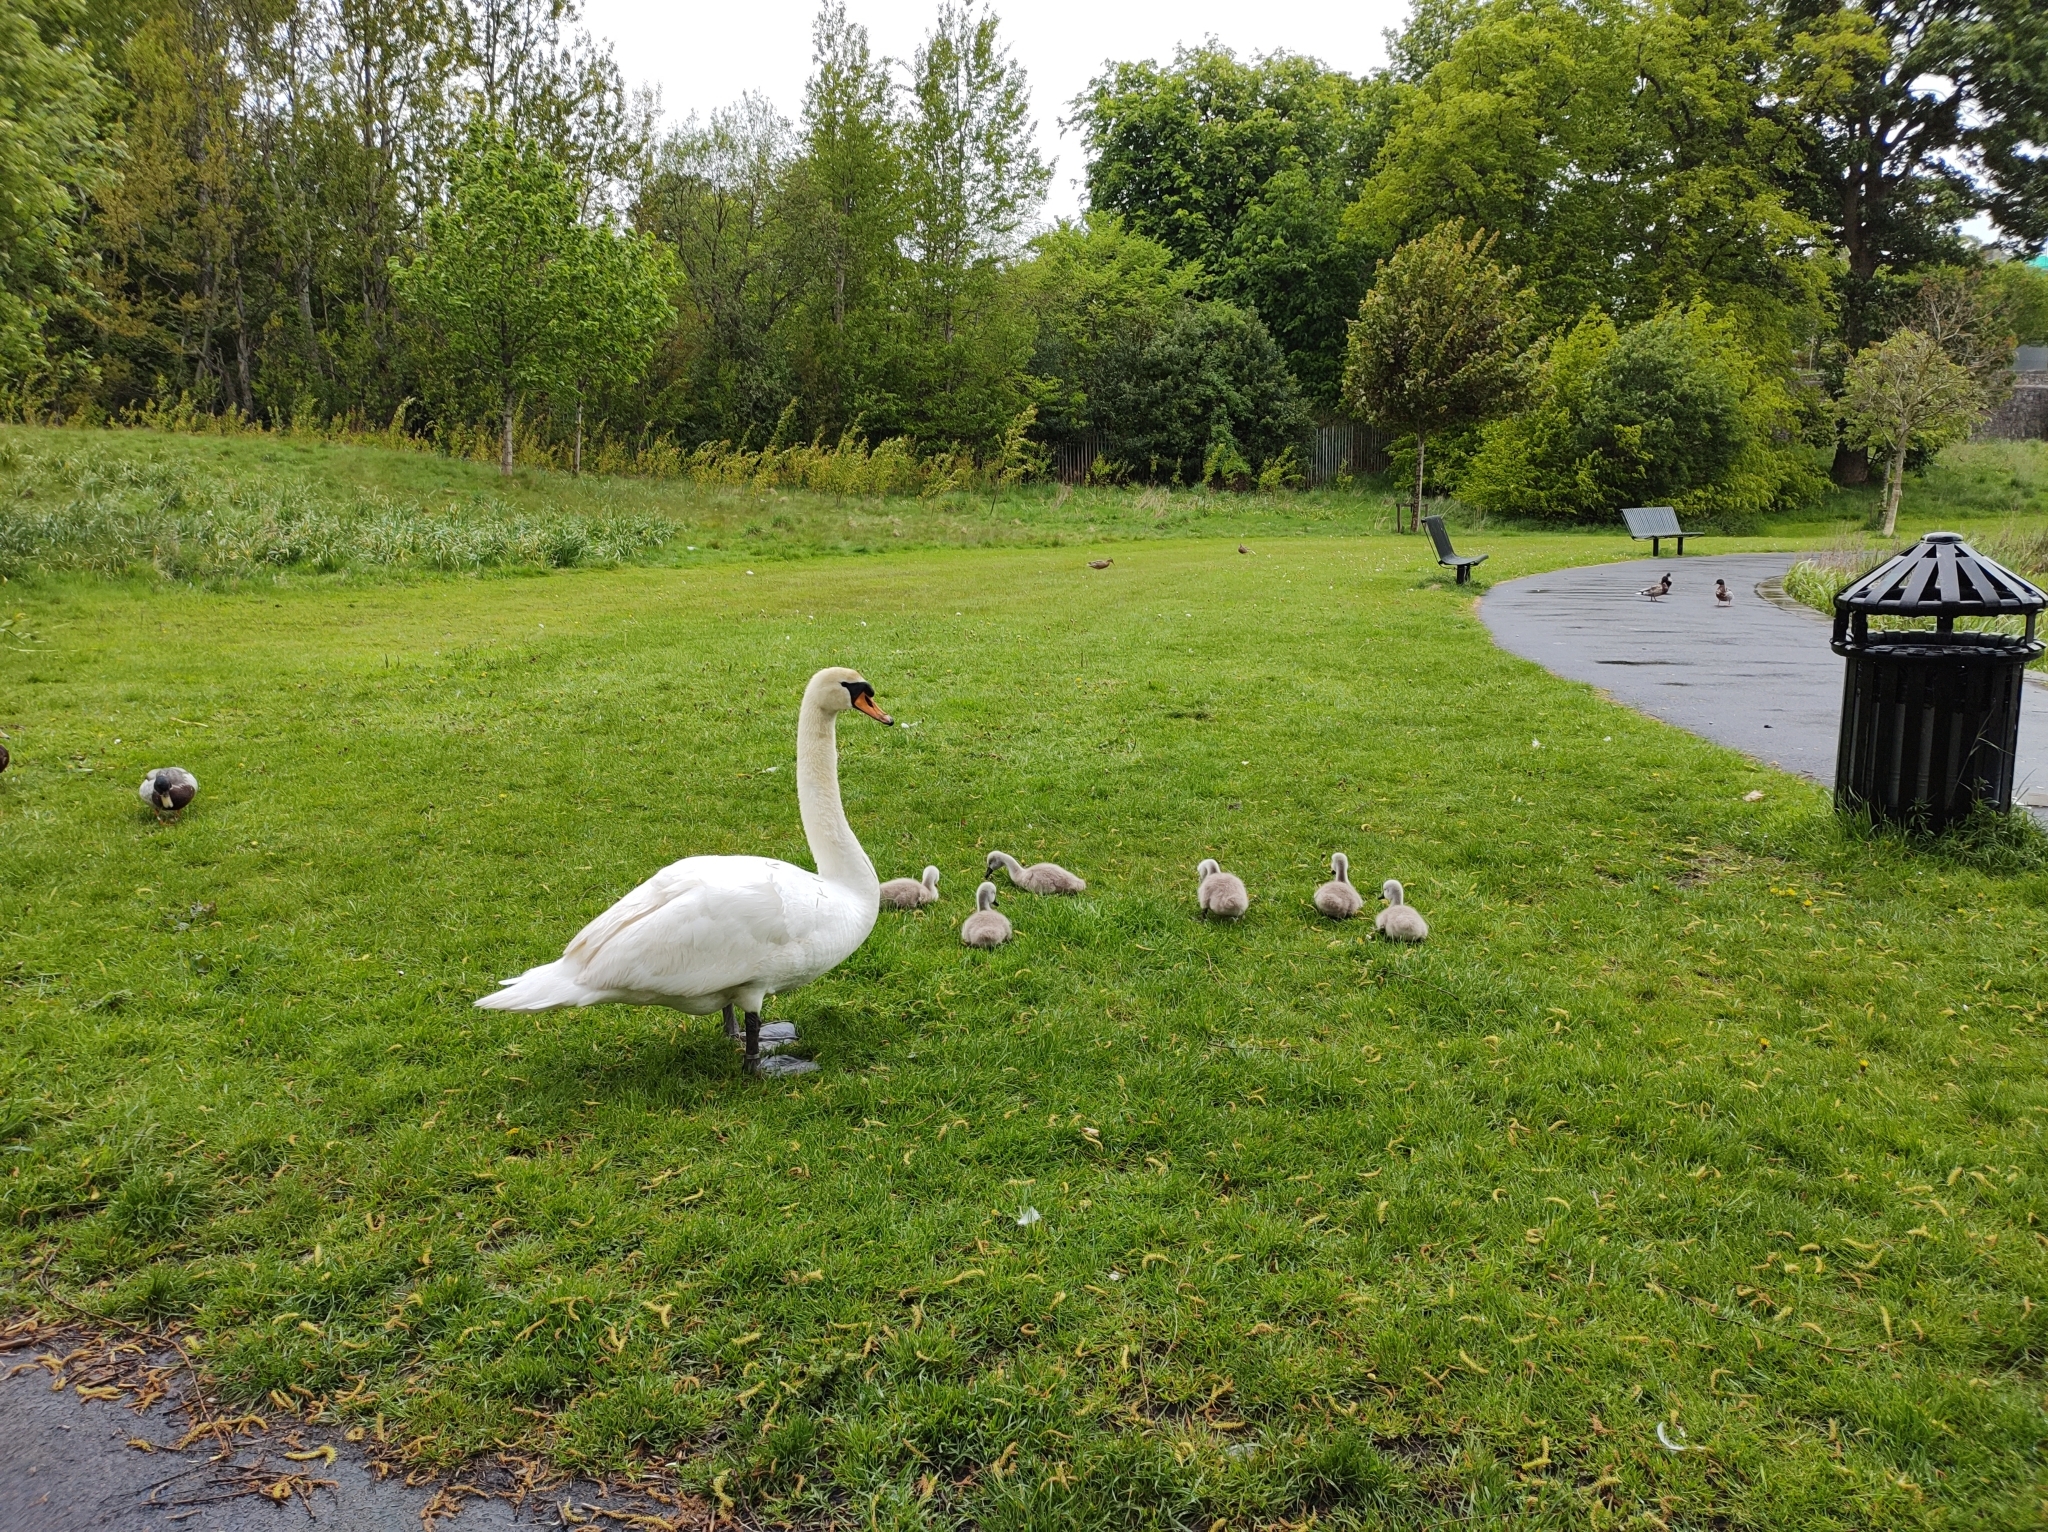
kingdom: Animalia
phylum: Chordata
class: Aves
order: Anseriformes
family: Anatidae
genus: Cygnus
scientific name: Cygnus olor
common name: Mute swan
